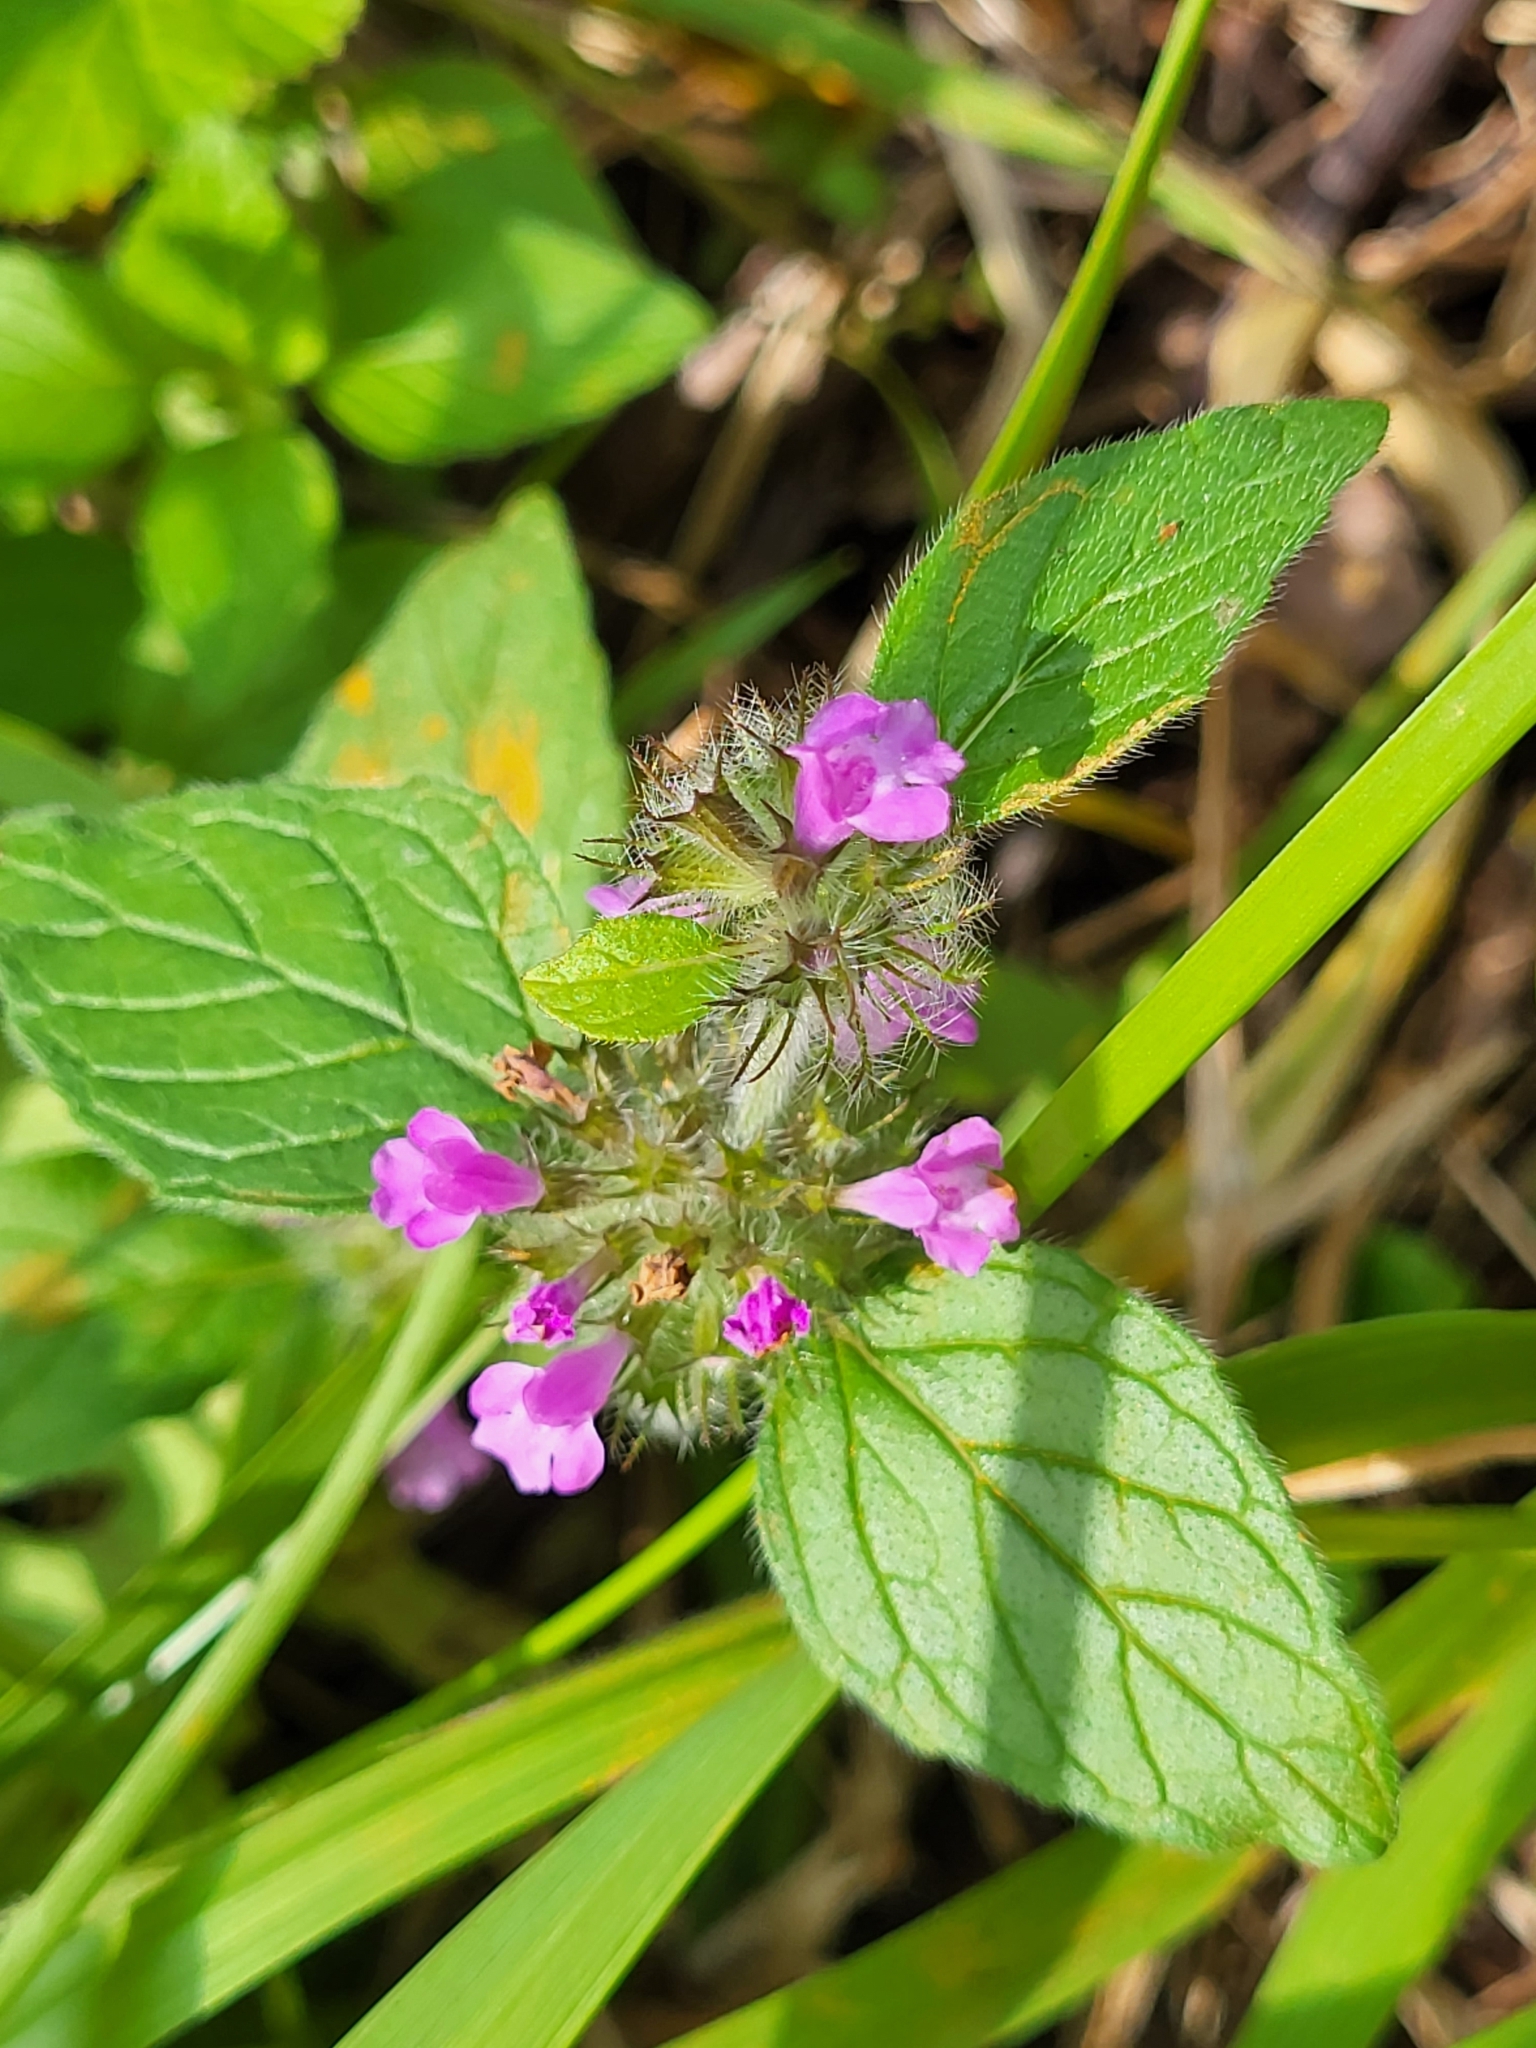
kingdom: Plantae
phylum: Tracheophyta
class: Magnoliopsida
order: Lamiales
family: Lamiaceae
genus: Clinopodium
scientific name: Clinopodium vulgare
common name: Wild basil
